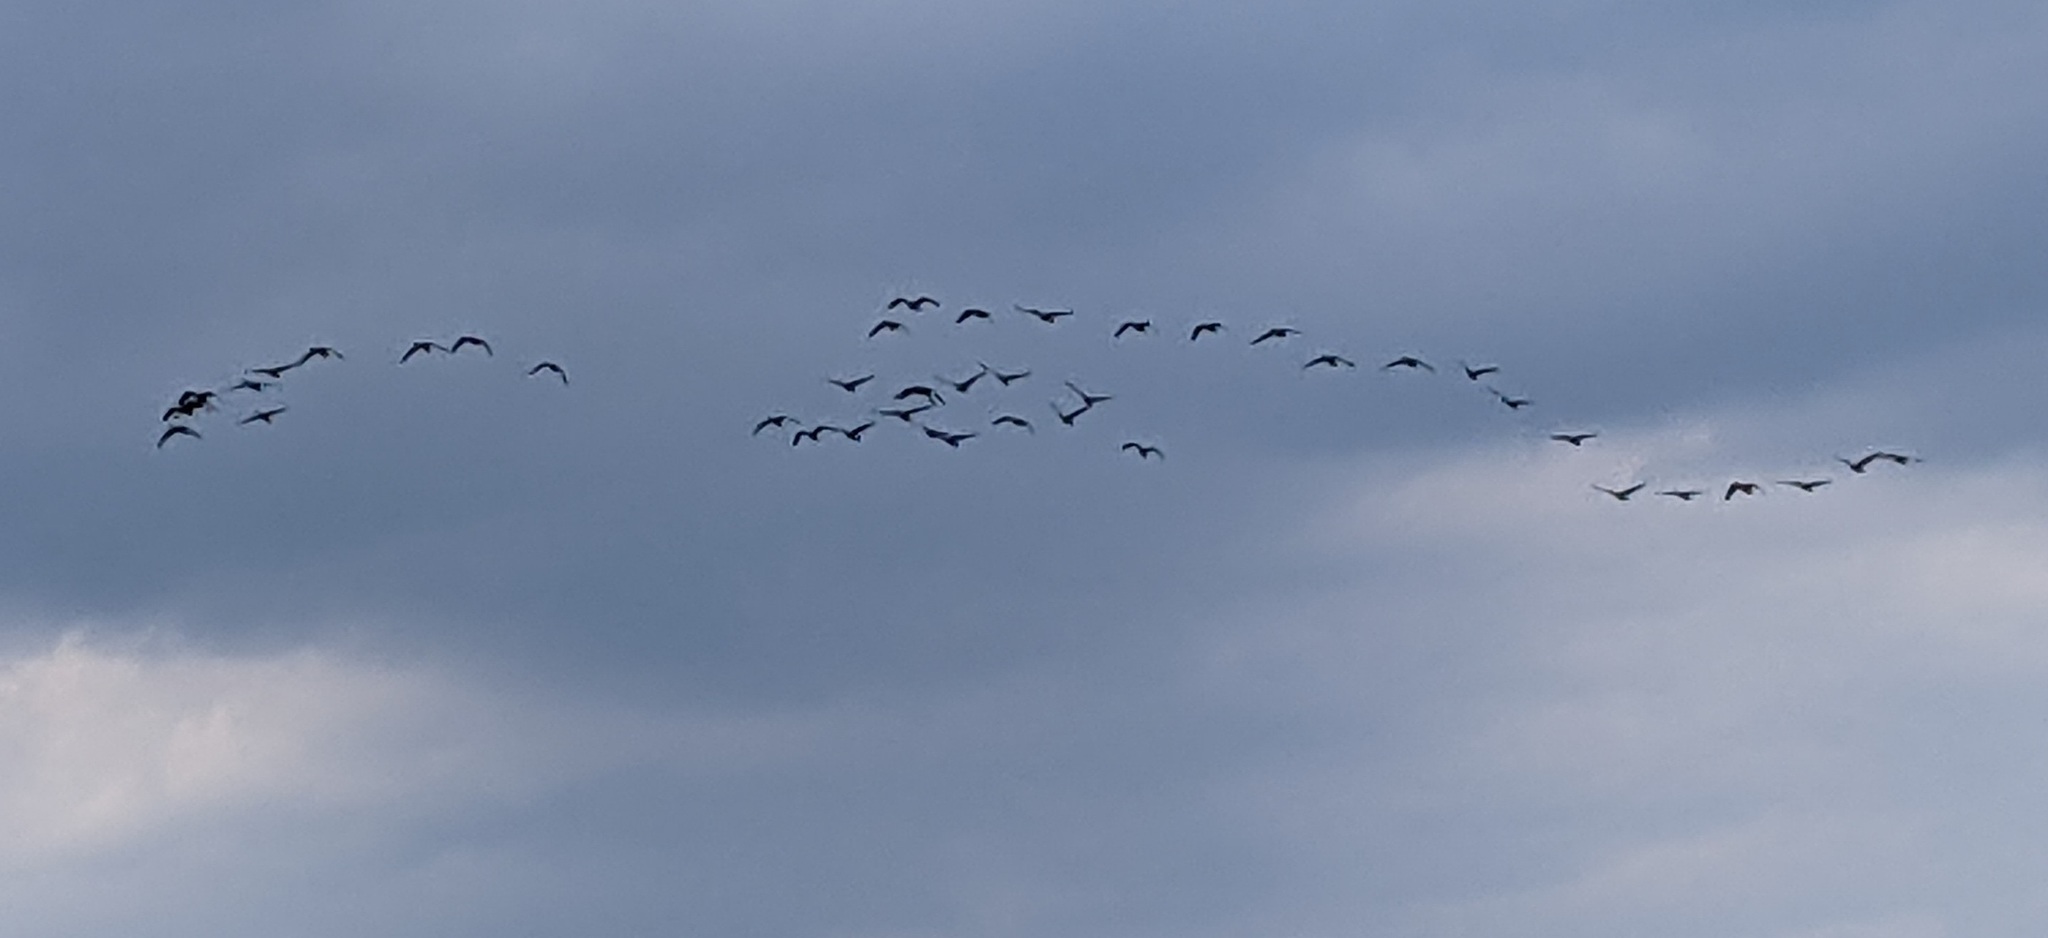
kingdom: Animalia
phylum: Chordata
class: Aves
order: Anseriformes
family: Anatidae
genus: Branta
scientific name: Branta canadensis
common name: Canada goose
